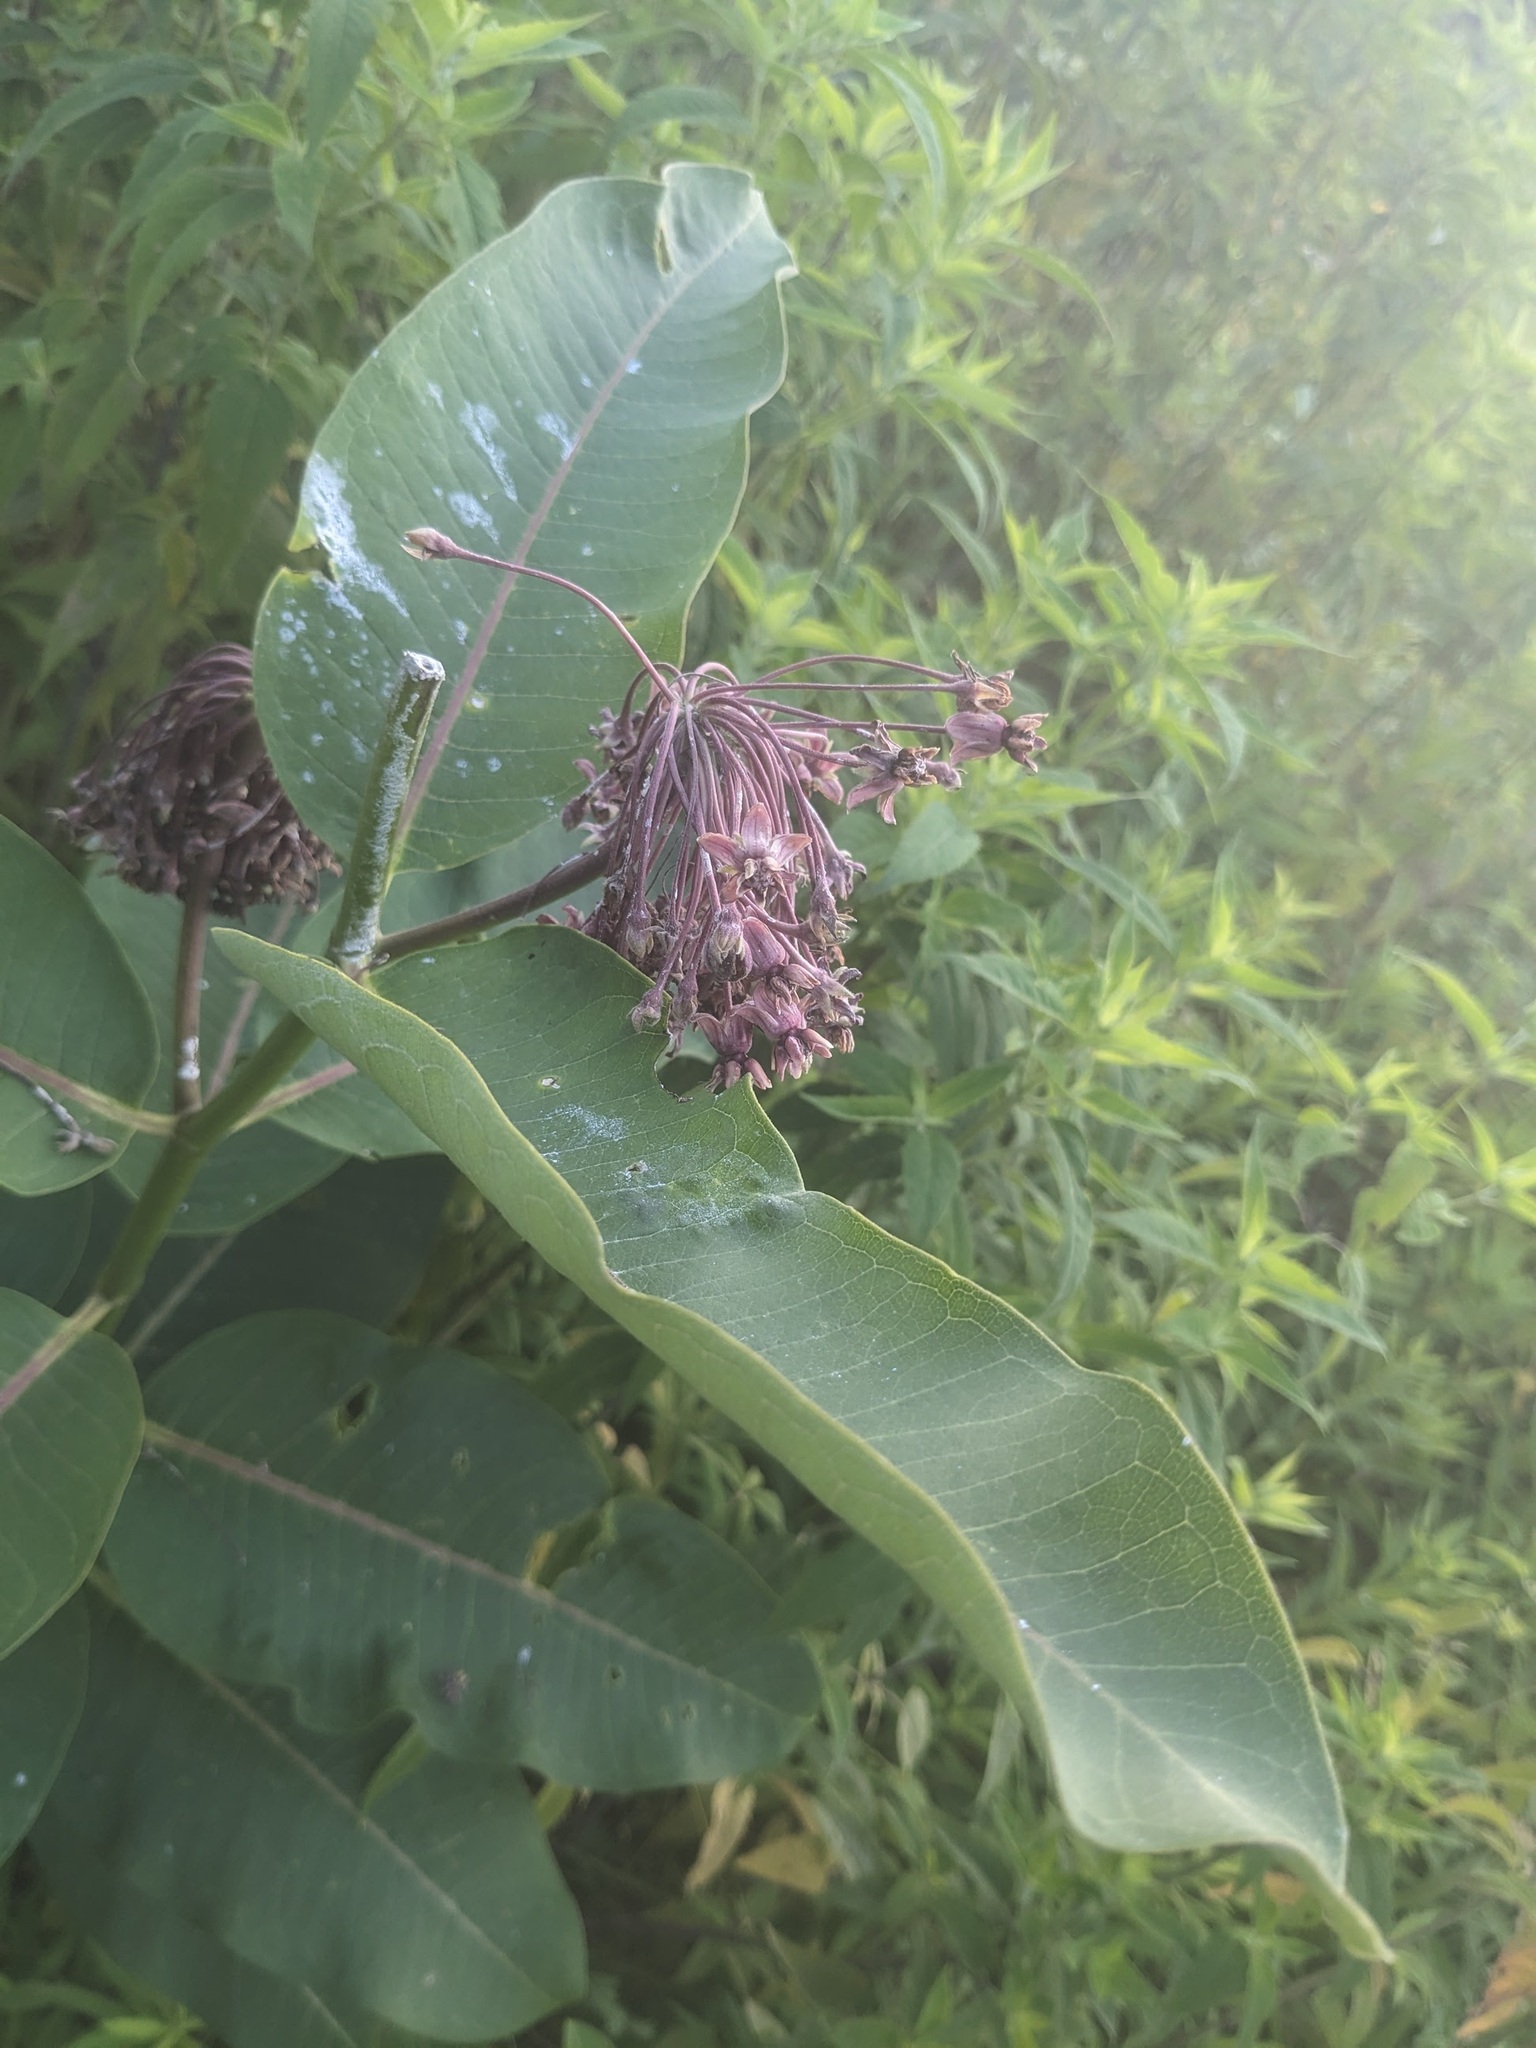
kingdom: Plantae
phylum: Tracheophyta
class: Magnoliopsida
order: Gentianales
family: Apocynaceae
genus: Asclepias
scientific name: Asclepias syriaca
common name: Common milkweed
